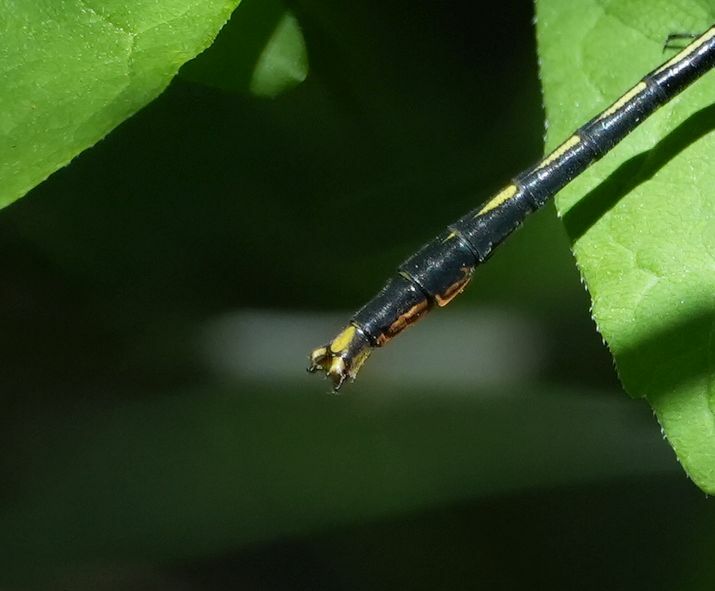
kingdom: Animalia
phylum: Arthropoda
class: Insecta
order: Odonata
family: Gomphidae
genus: Arigomphus
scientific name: Arigomphus furcifer
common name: Lilypad clubtail
